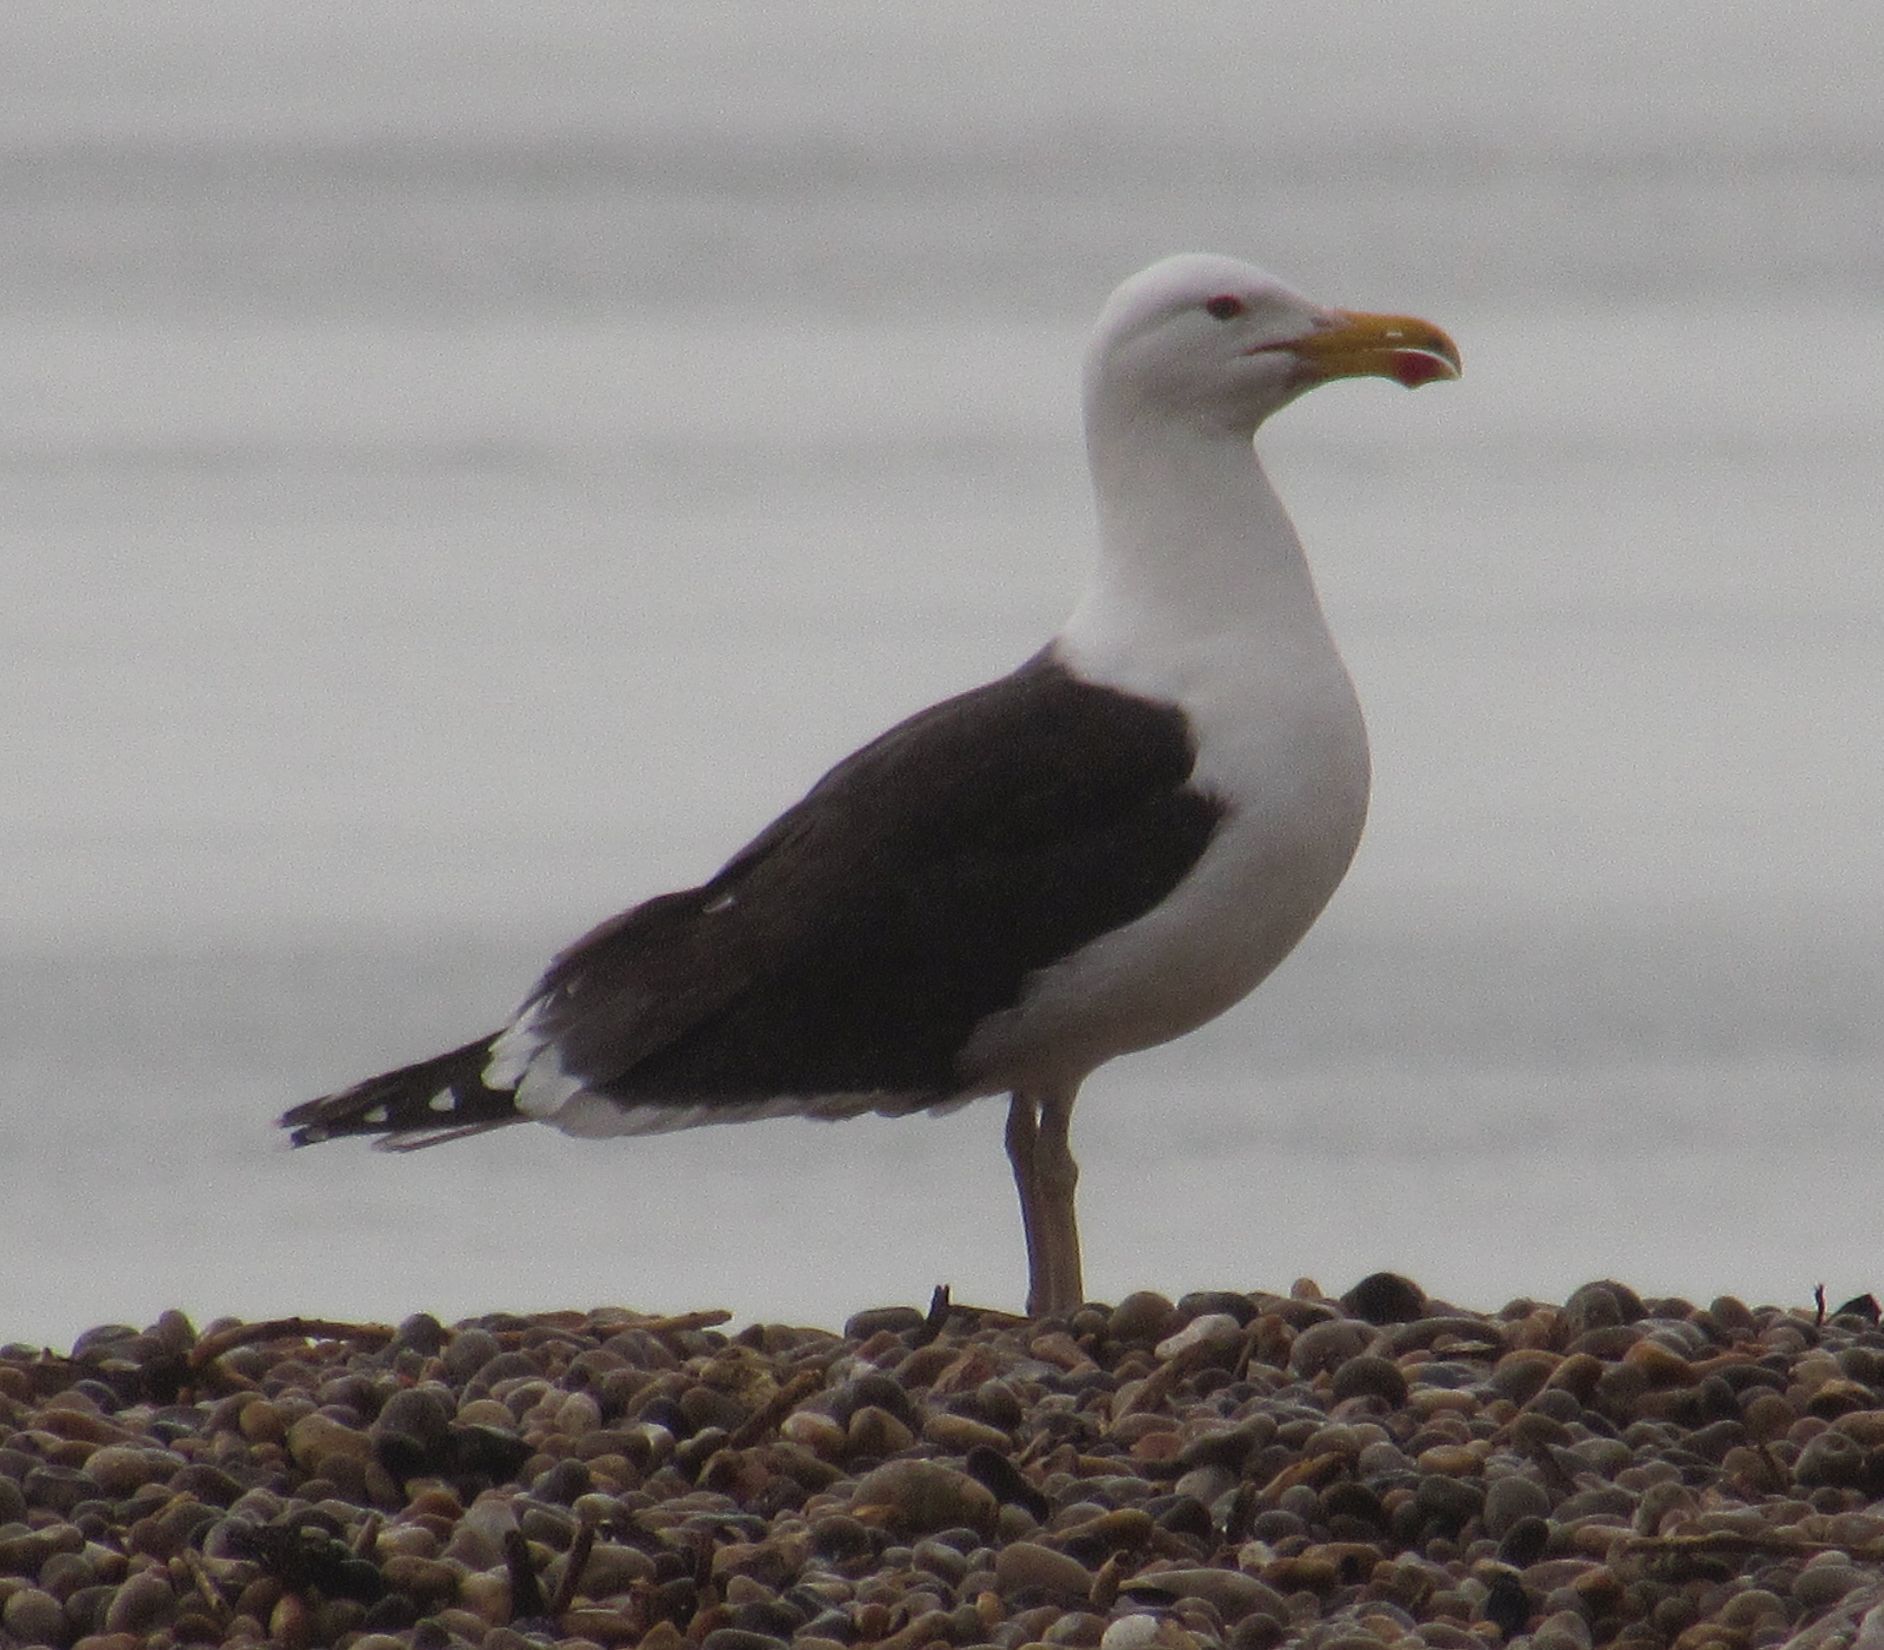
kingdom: Animalia
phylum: Chordata
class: Aves
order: Charadriiformes
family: Laridae
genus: Larus
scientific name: Larus marinus
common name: Great black-backed gull
